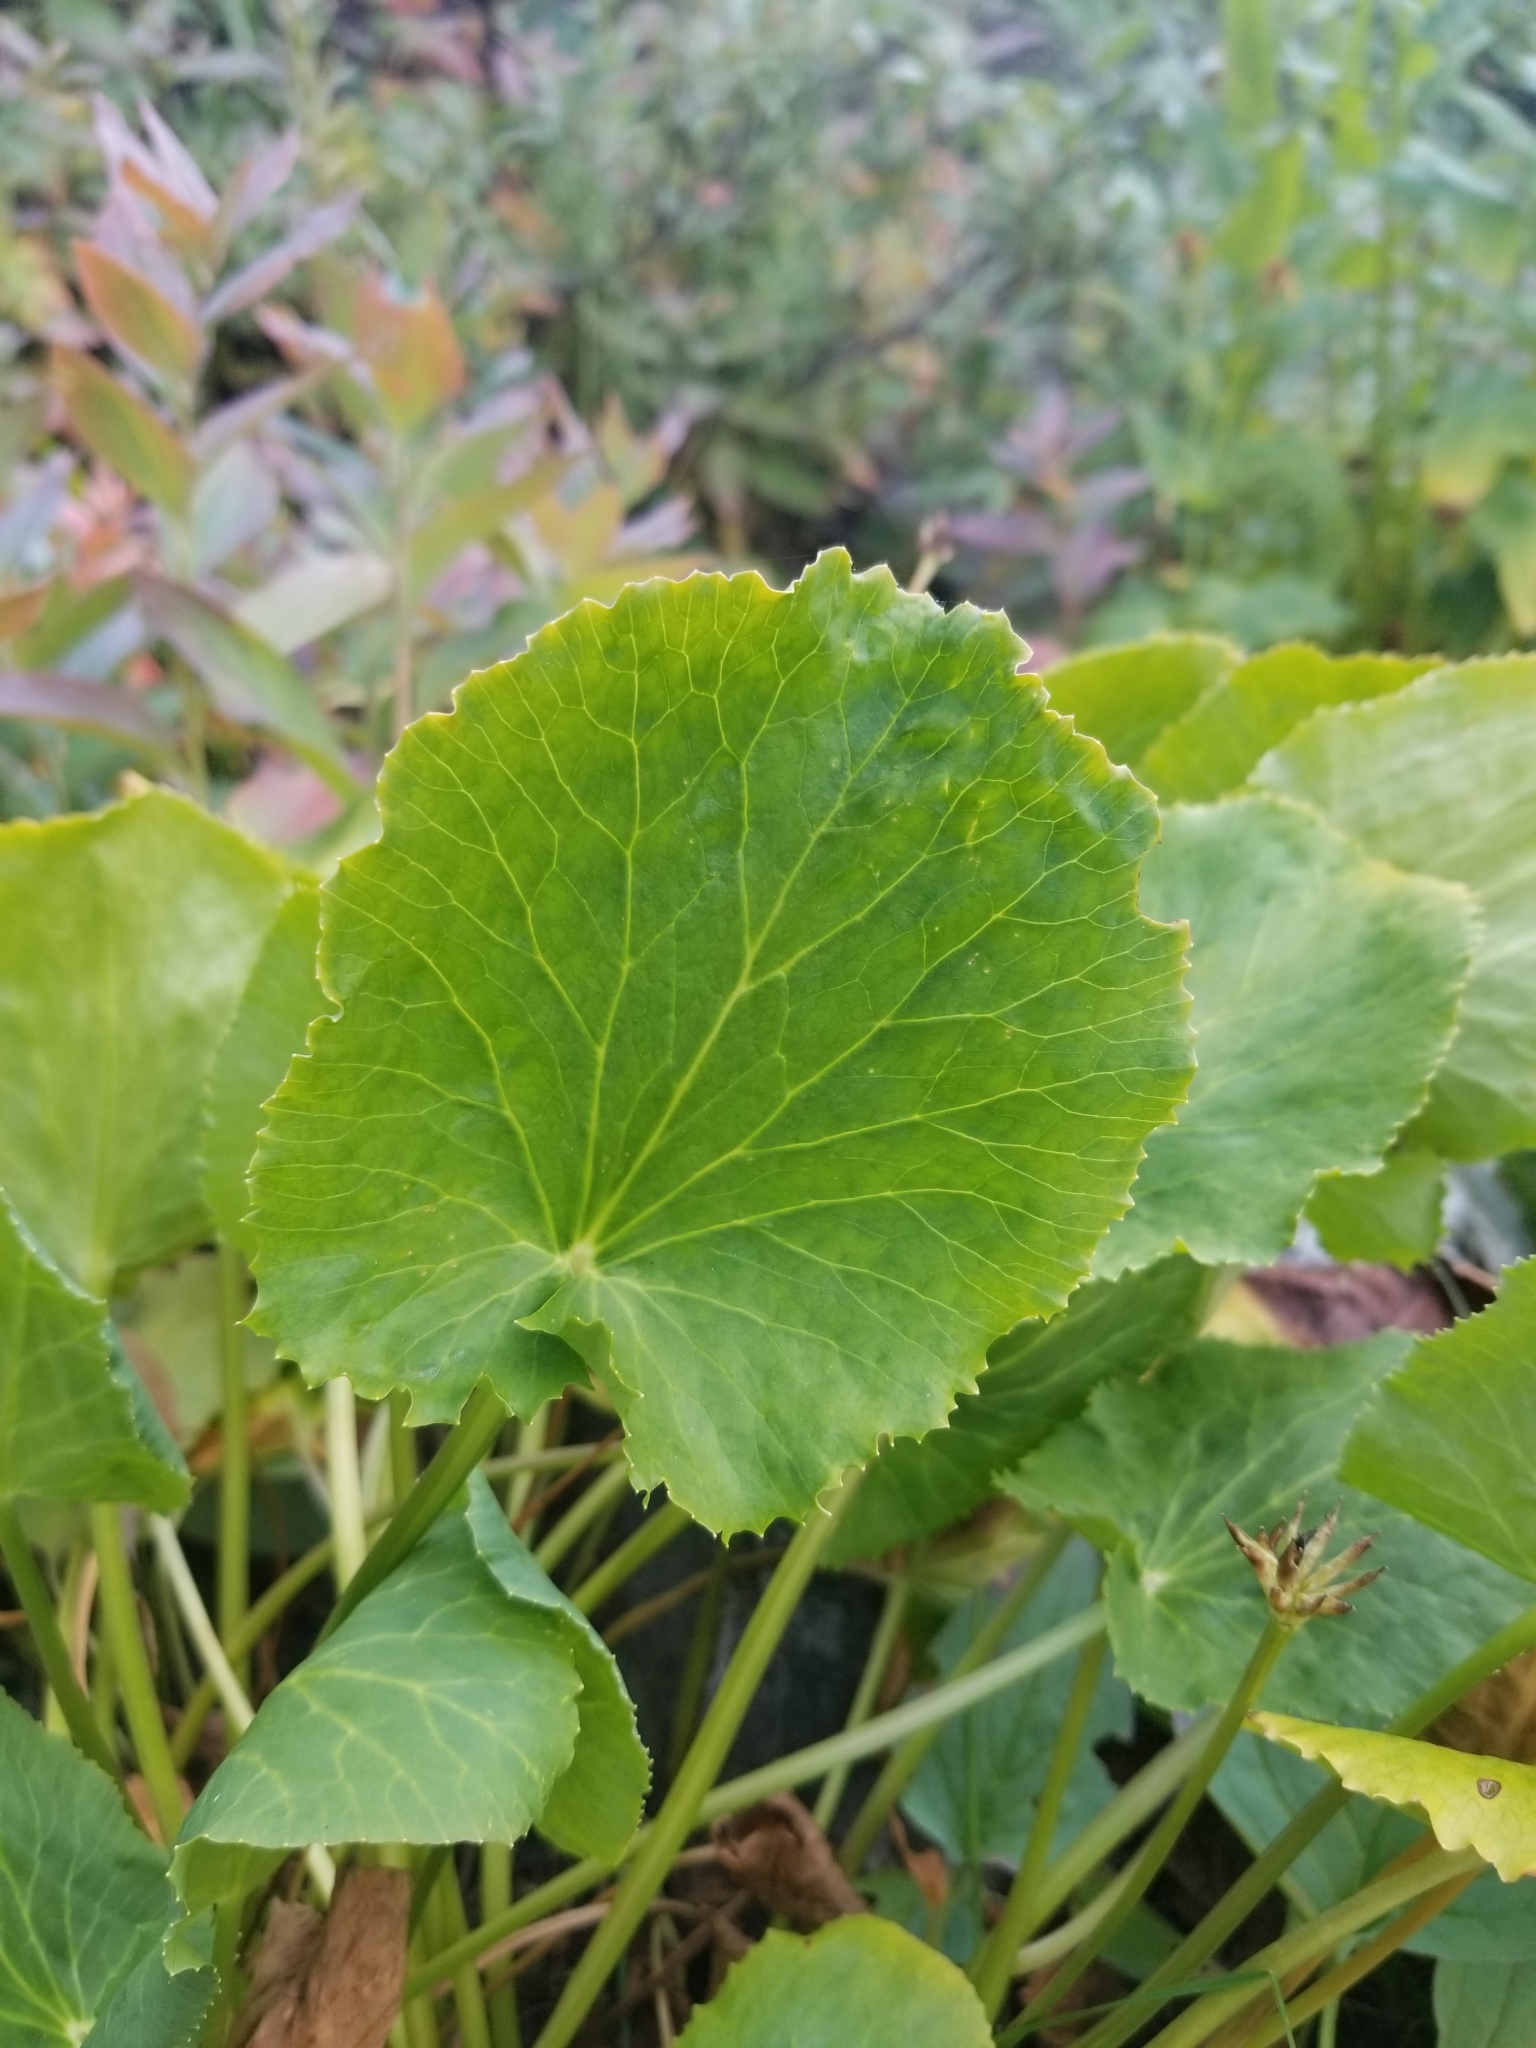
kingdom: Plantae
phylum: Tracheophyta
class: Magnoliopsida
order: Ranunculales
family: Ranunculaceae
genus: Caltha
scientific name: Caltha leptosepala
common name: Elkslip
